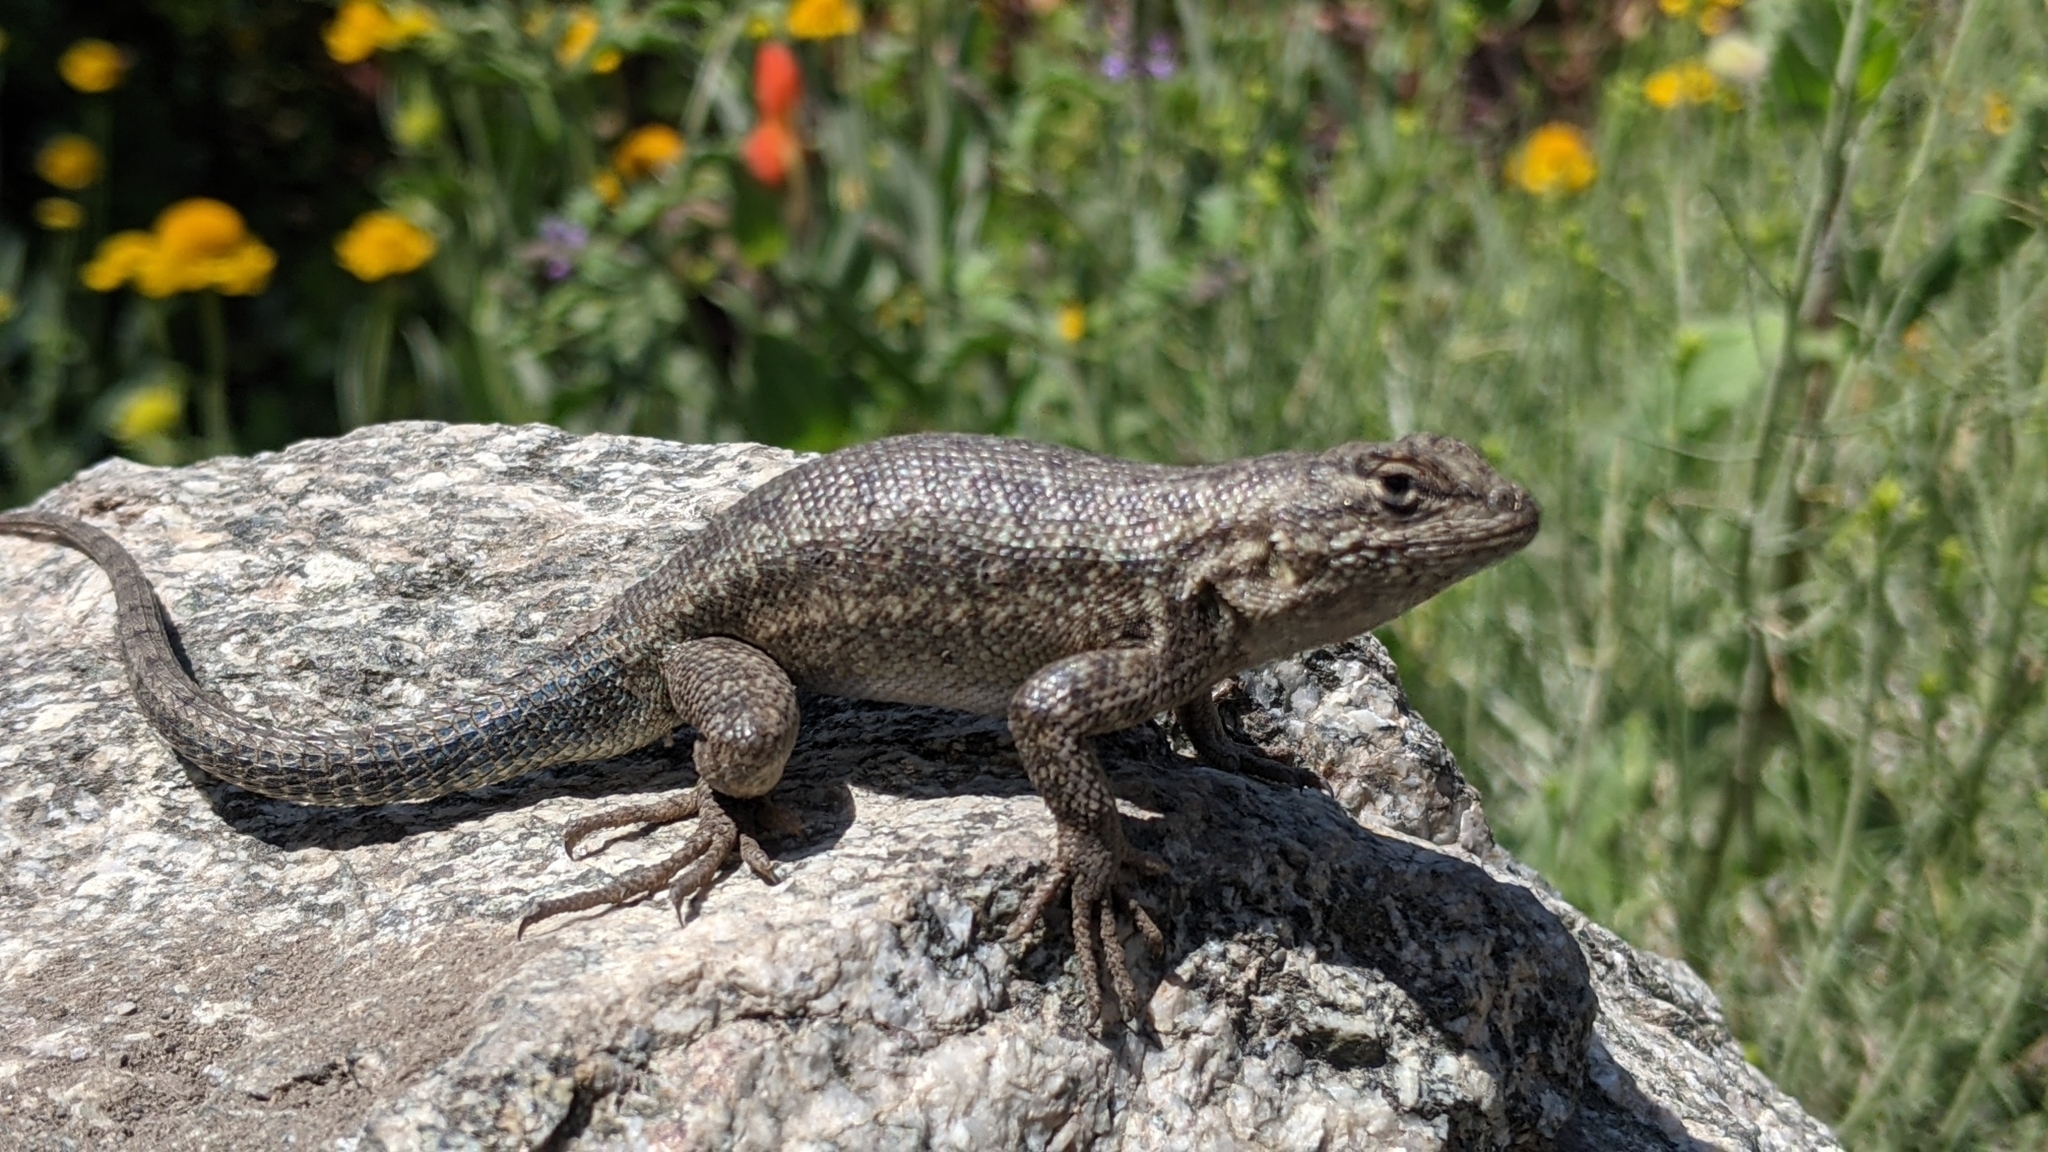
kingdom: Animalia
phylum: Chordata
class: Squamata
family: Phrynosomatidae
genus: Sceloporus
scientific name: Sceloporus graciosus
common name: Sagebrush lizard
